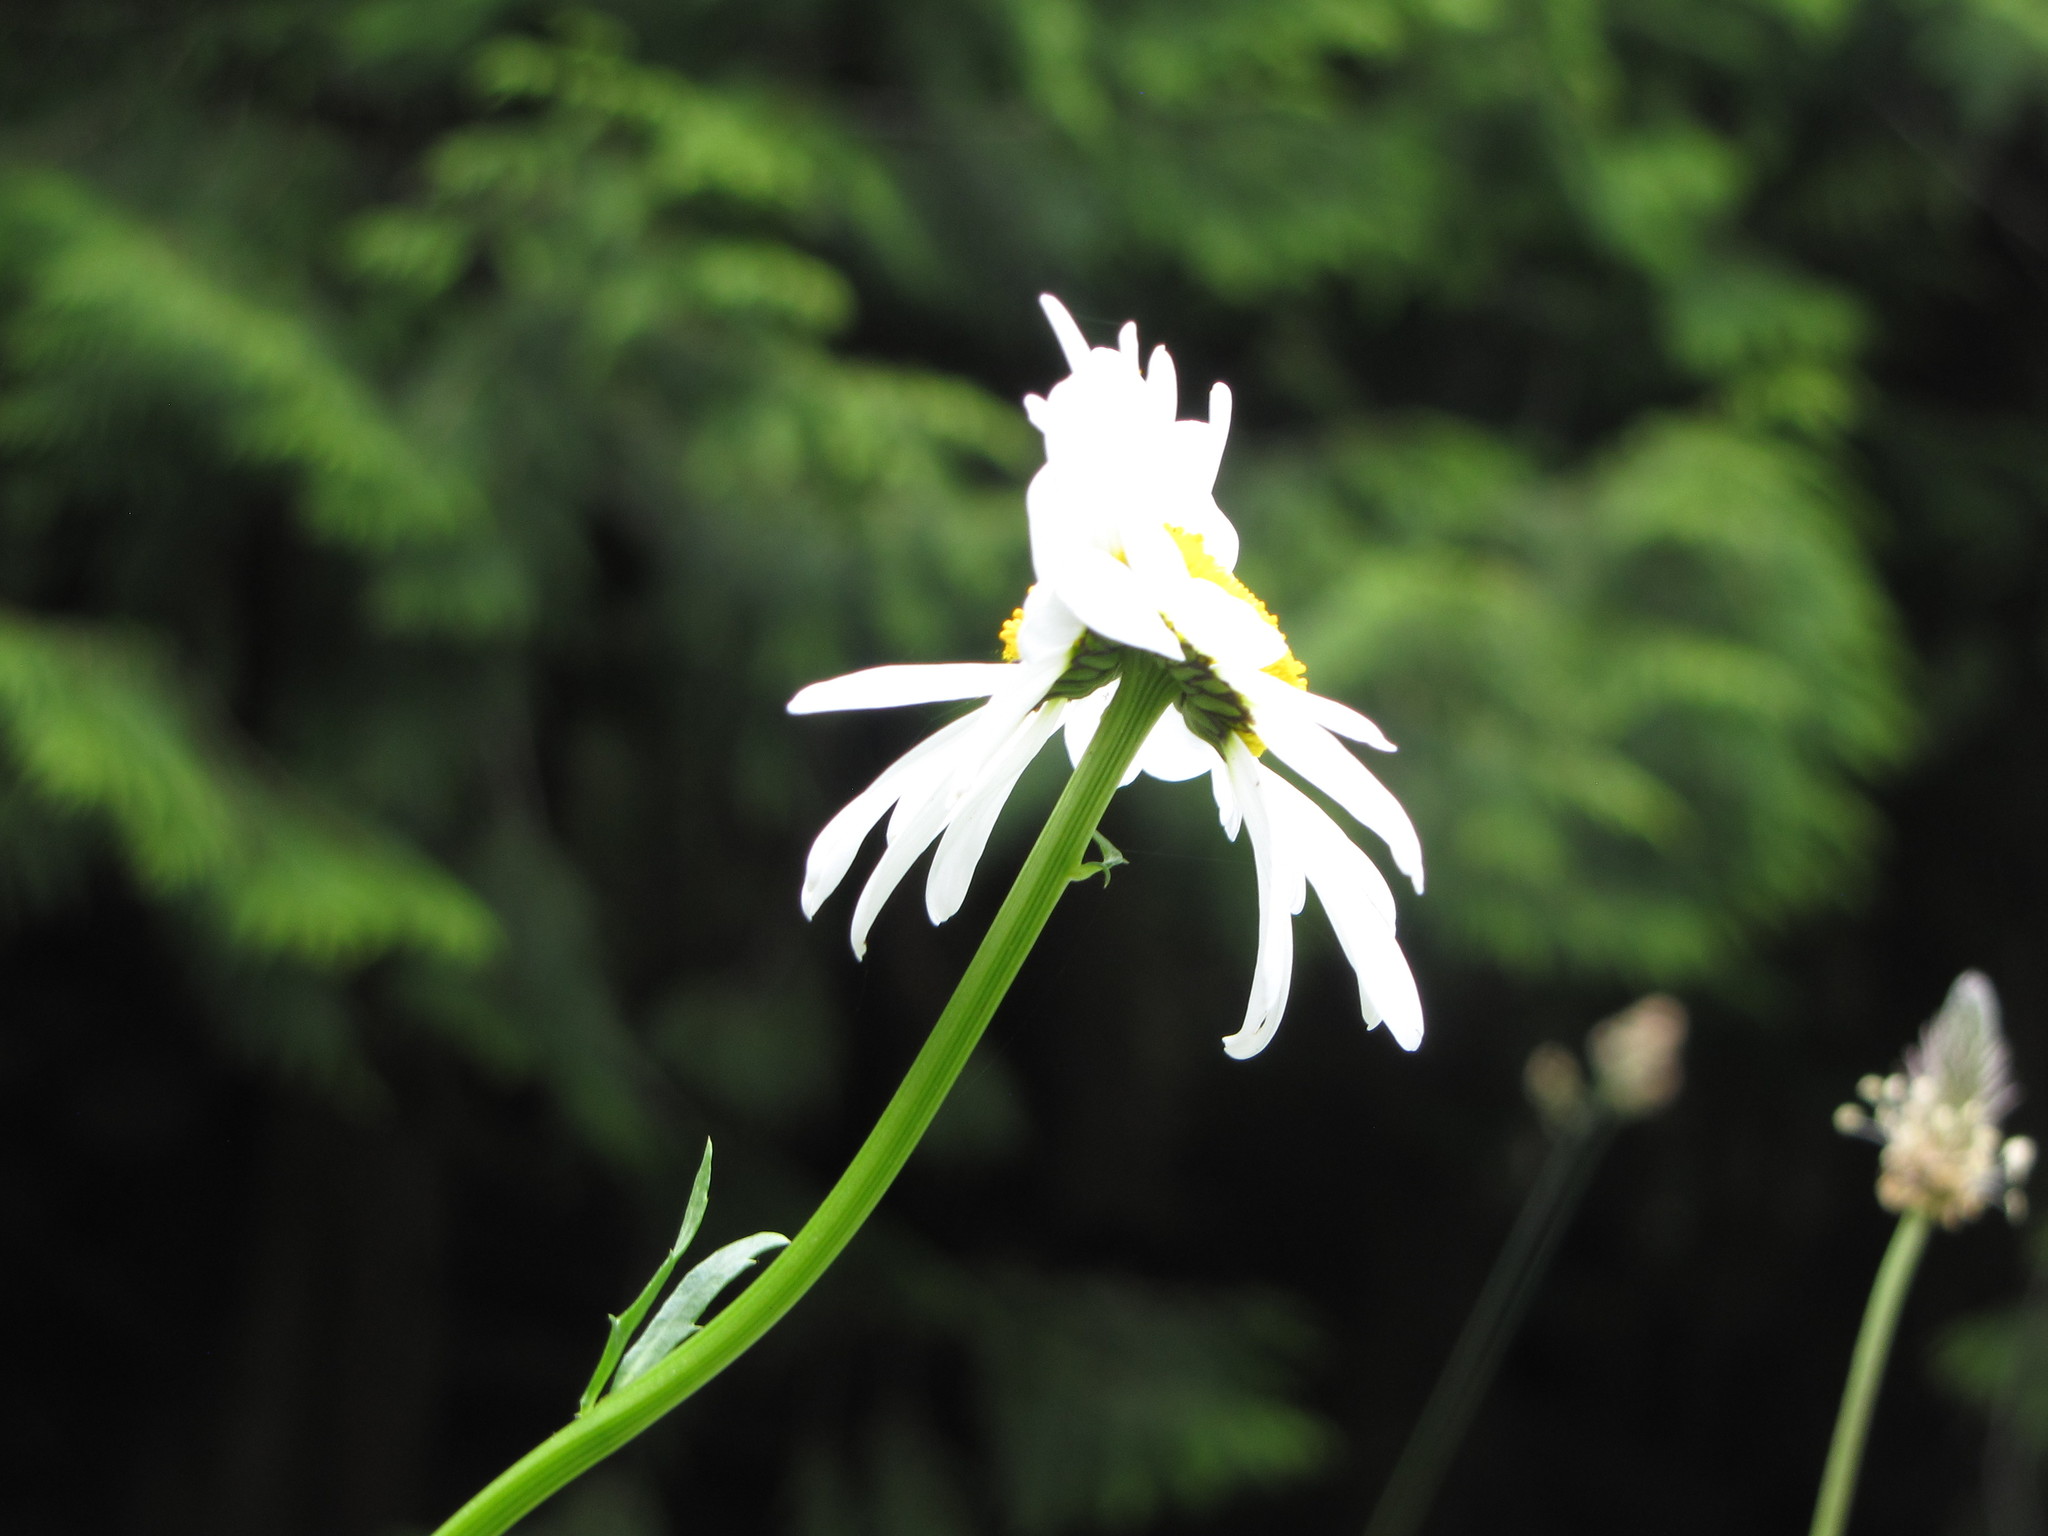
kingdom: Plantae
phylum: Tracheophyta
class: Magnoliopsida
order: Asterales
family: Asteraceae
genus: Leucanthemum
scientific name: Leucanthemum vulgare
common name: Oxeye daisy
